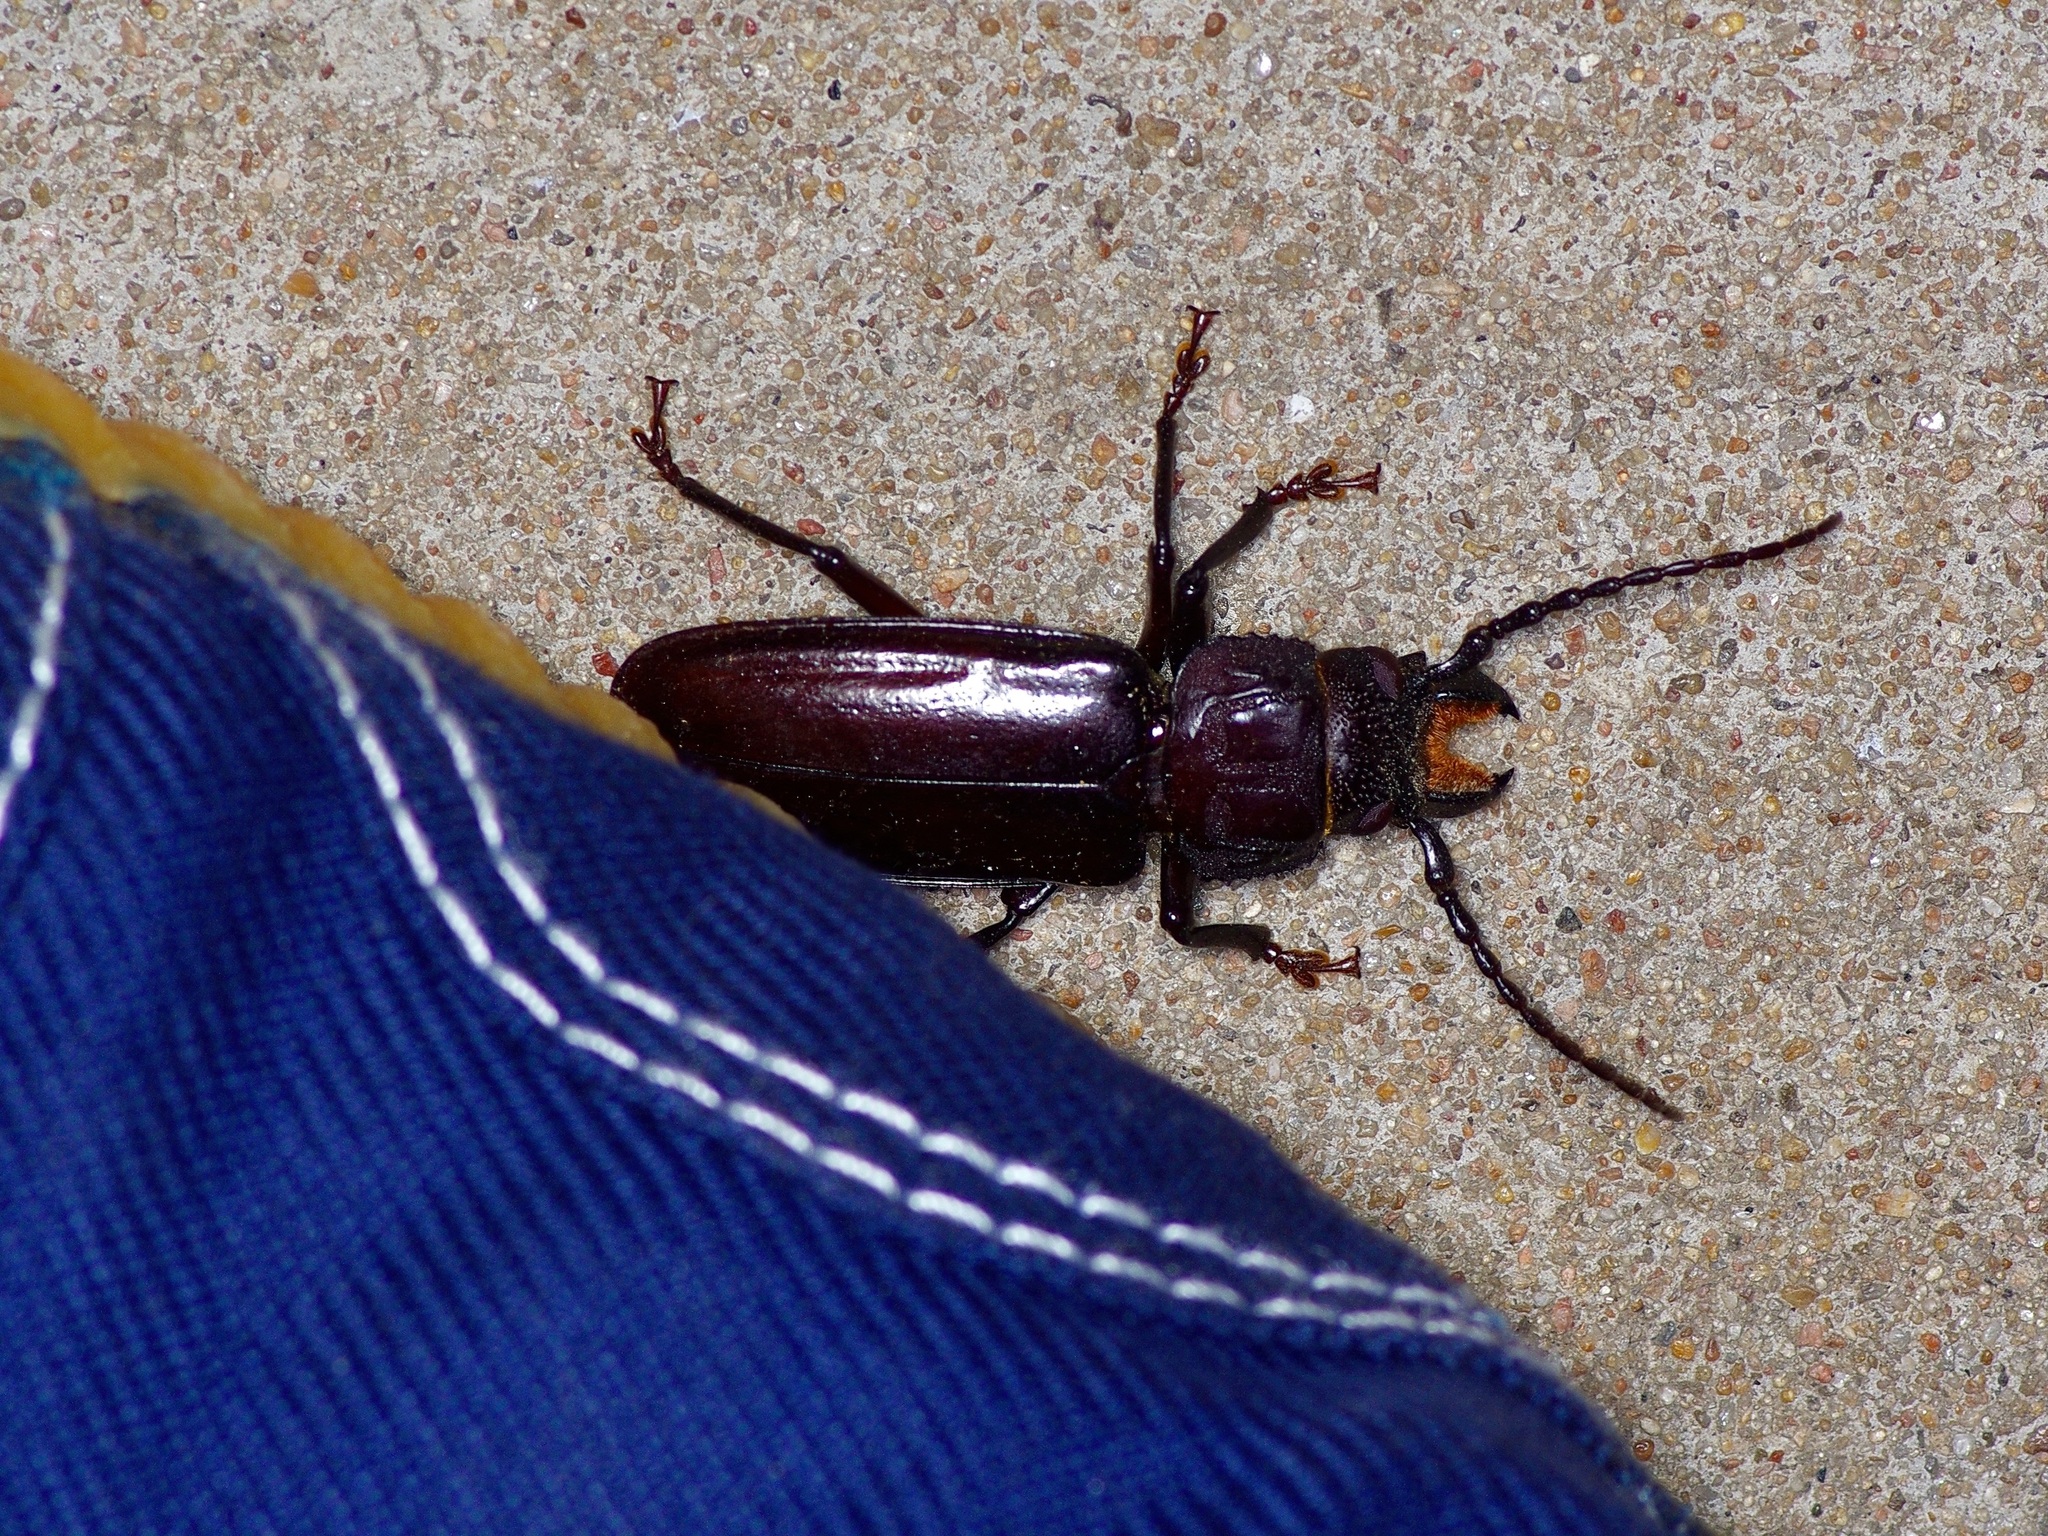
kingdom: Animalia
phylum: Arthropoda
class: Insecta
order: Coleoptera
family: Cerambycidae
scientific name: Cerambycidae
